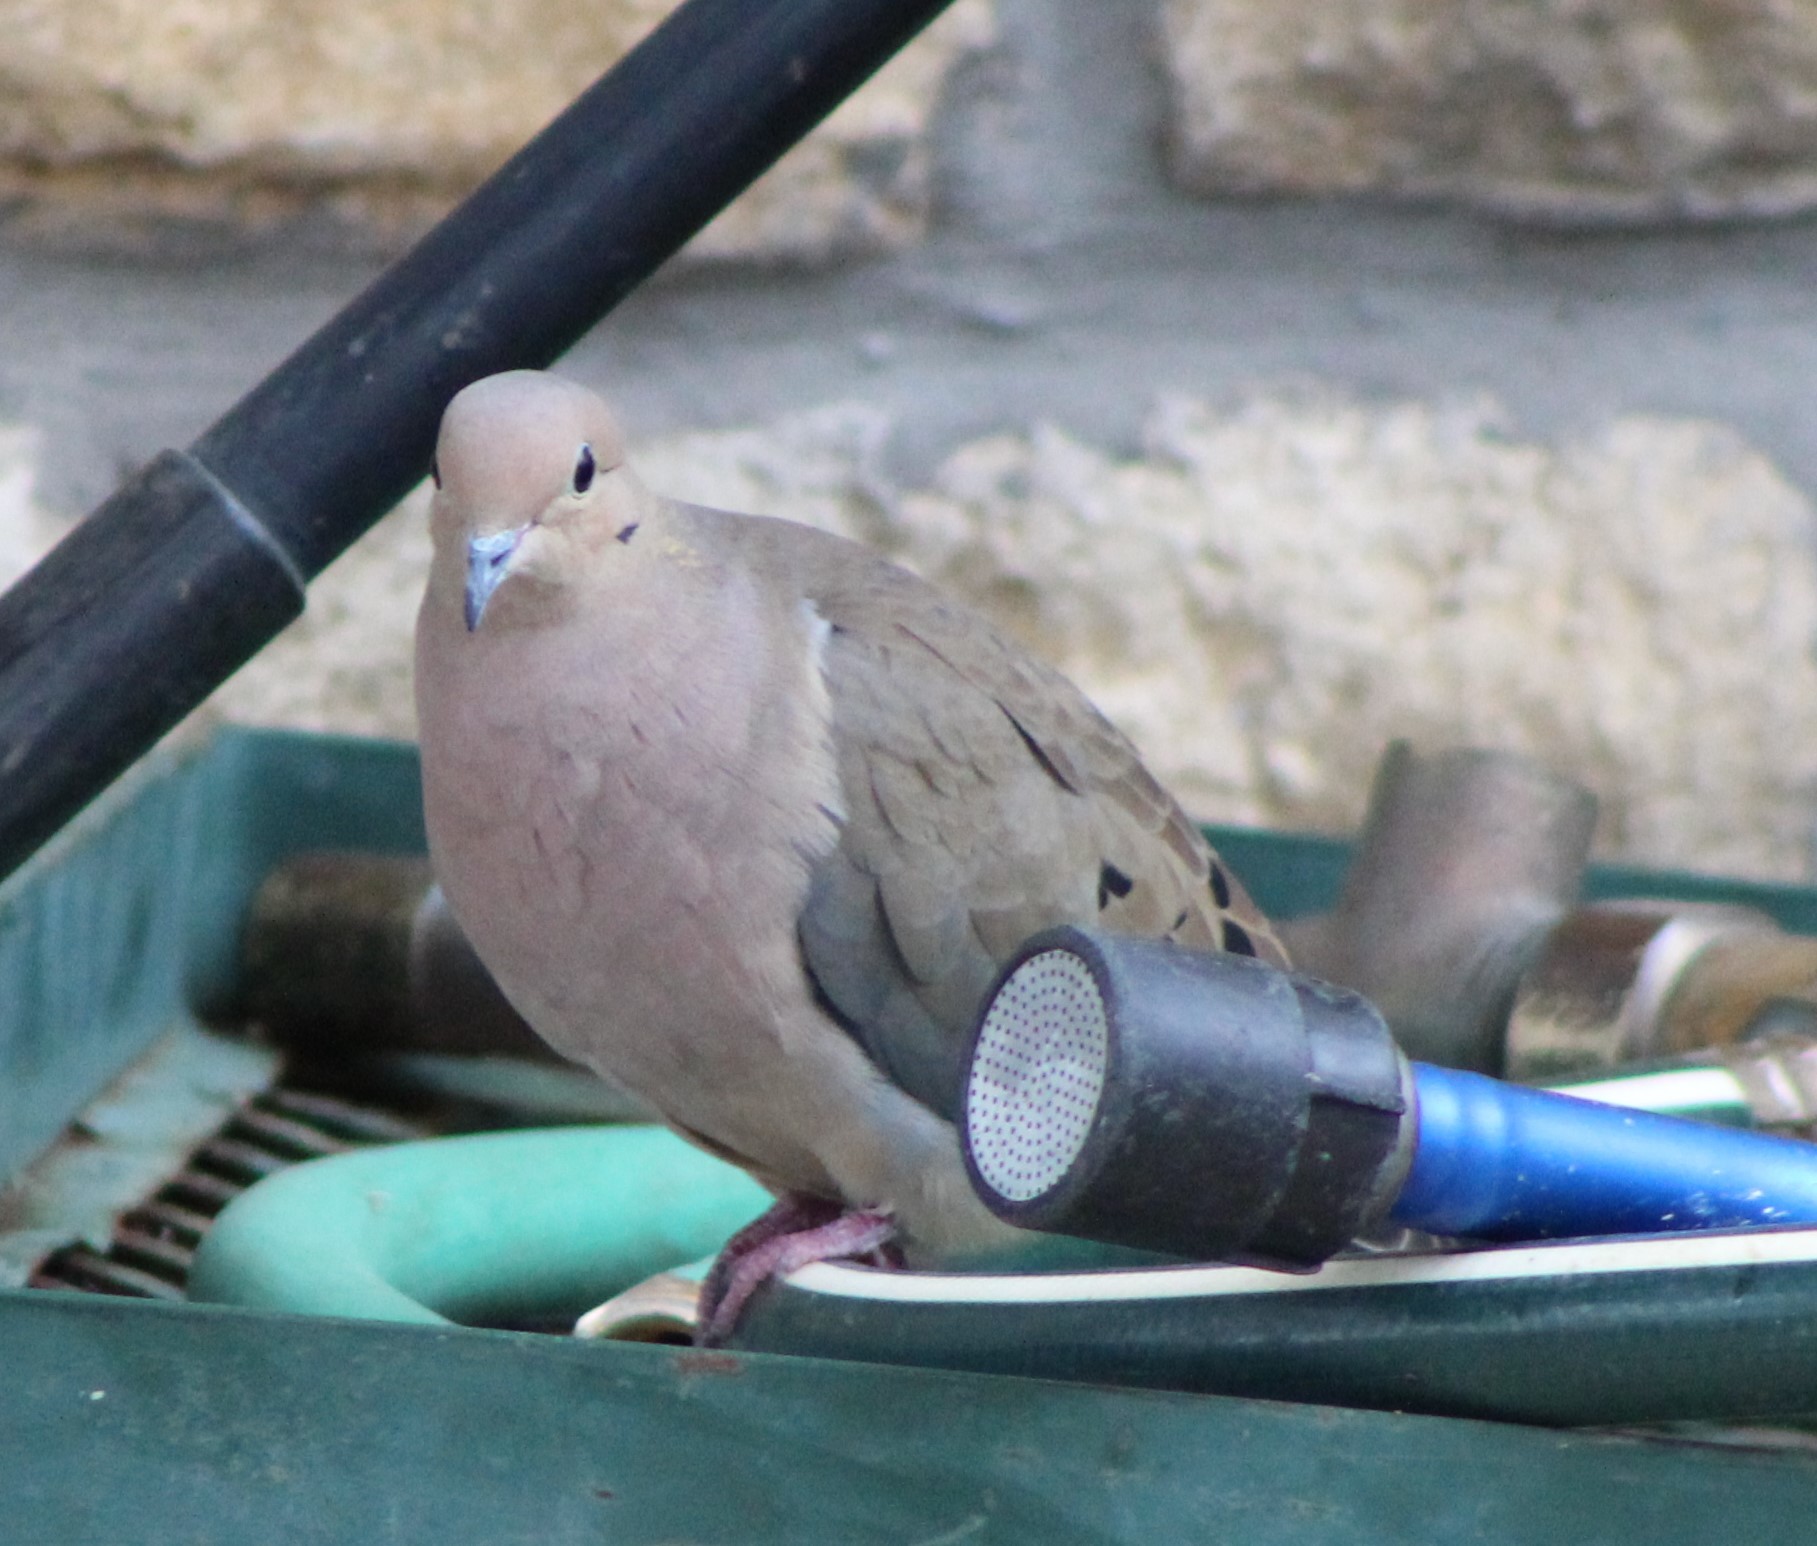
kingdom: Animalia
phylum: Chordata
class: Aves
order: Columbiformes
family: Columbidae
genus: Zenaida
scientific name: Zenaida macroura
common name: Mourning dove
